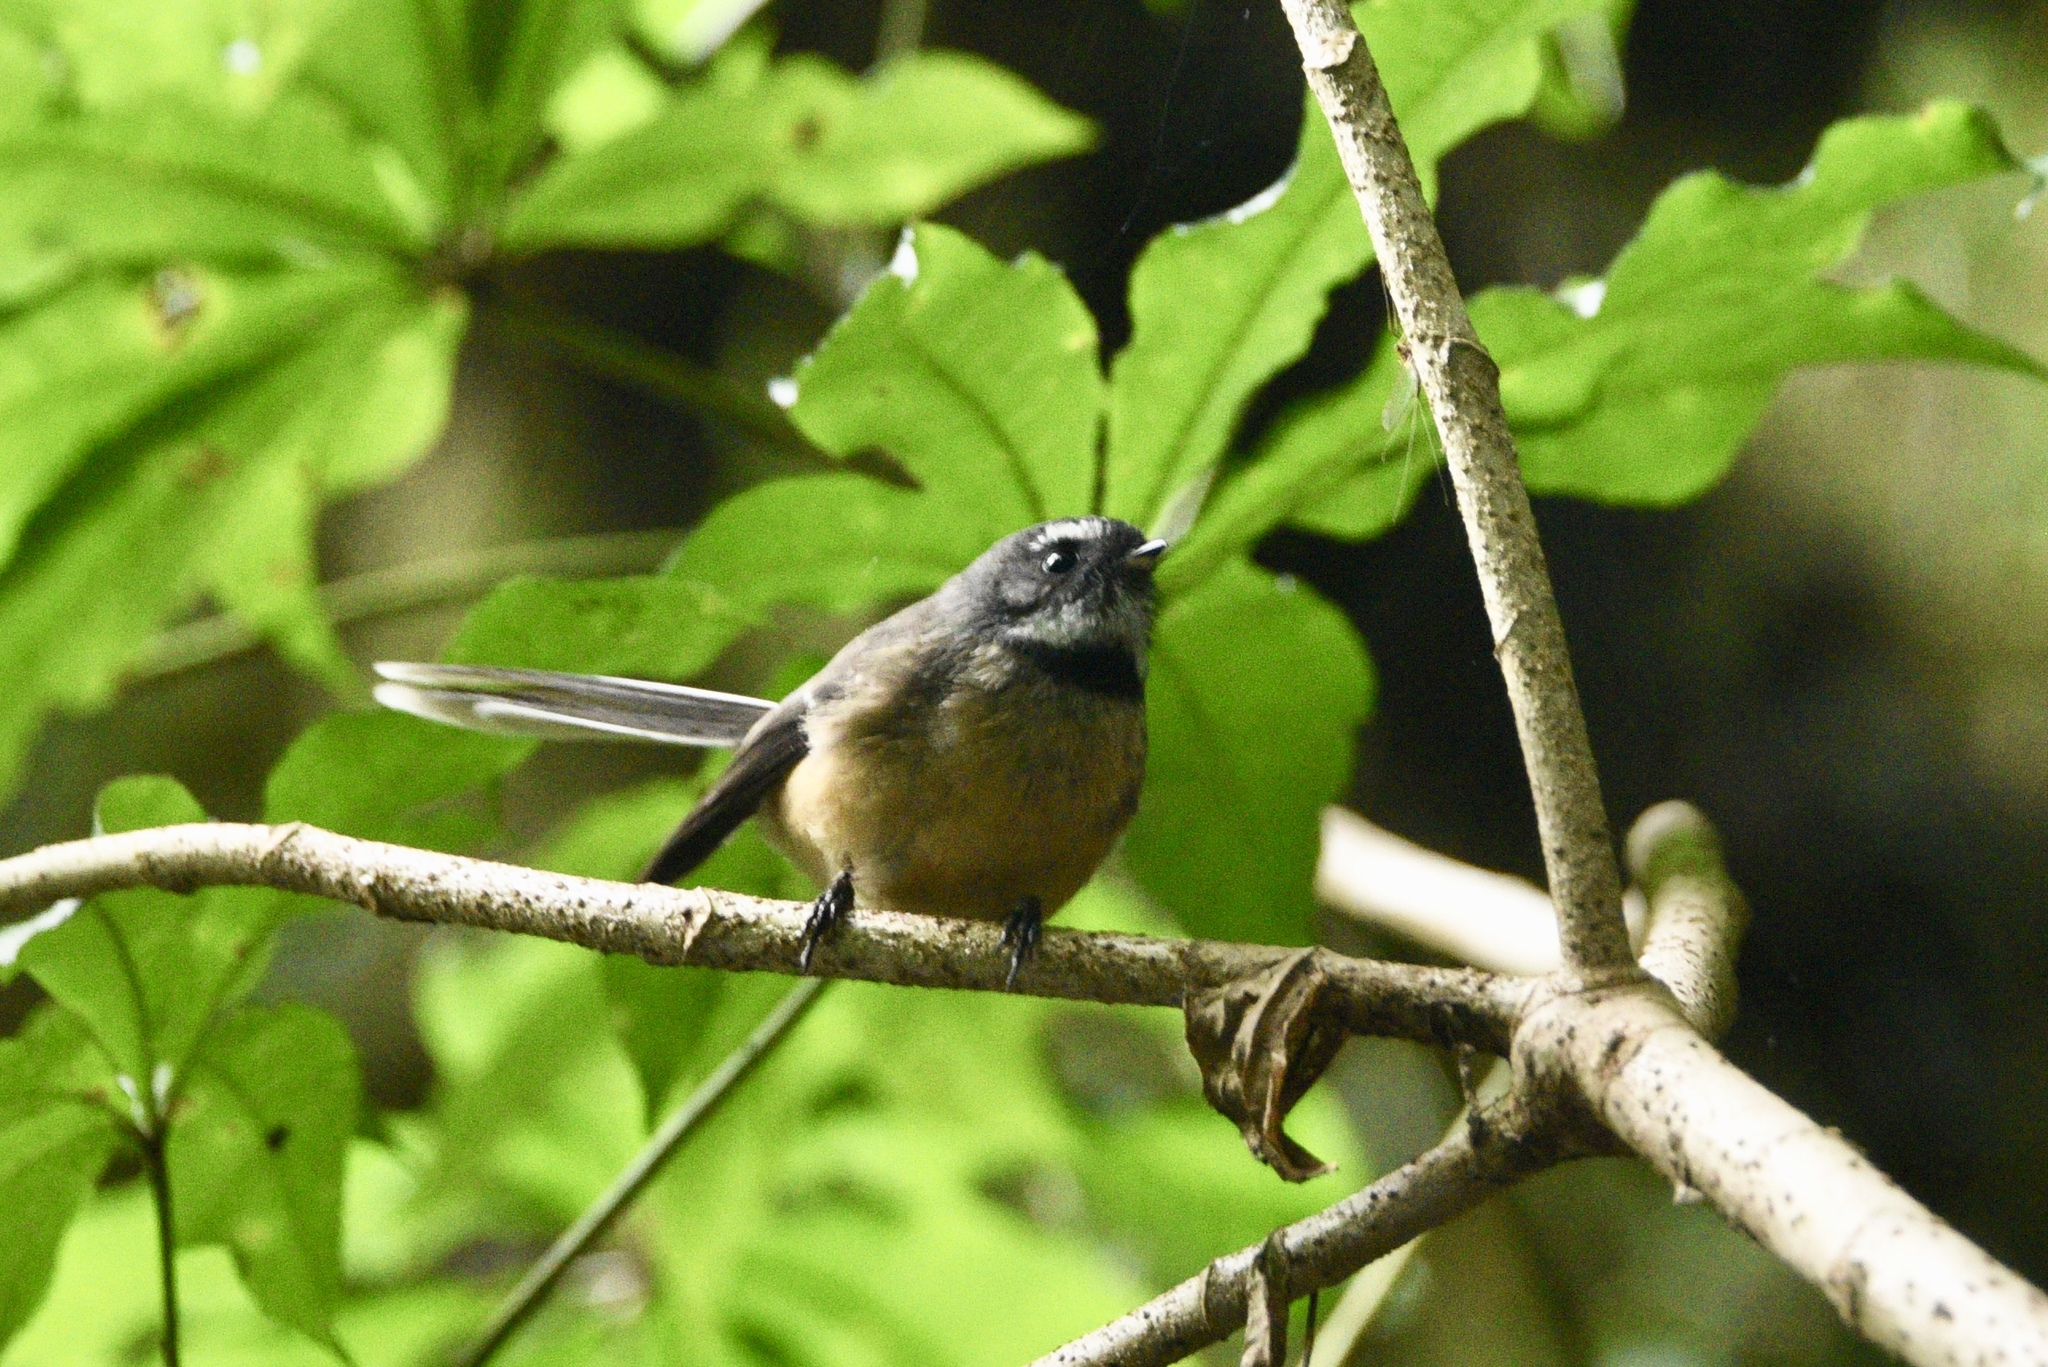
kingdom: Animalia
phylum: Chordata
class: Aves
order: Passeriformes
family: Rhipiduridae
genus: Rhipidura
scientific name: Rhipidura fuliginosa
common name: New zealand fantail
